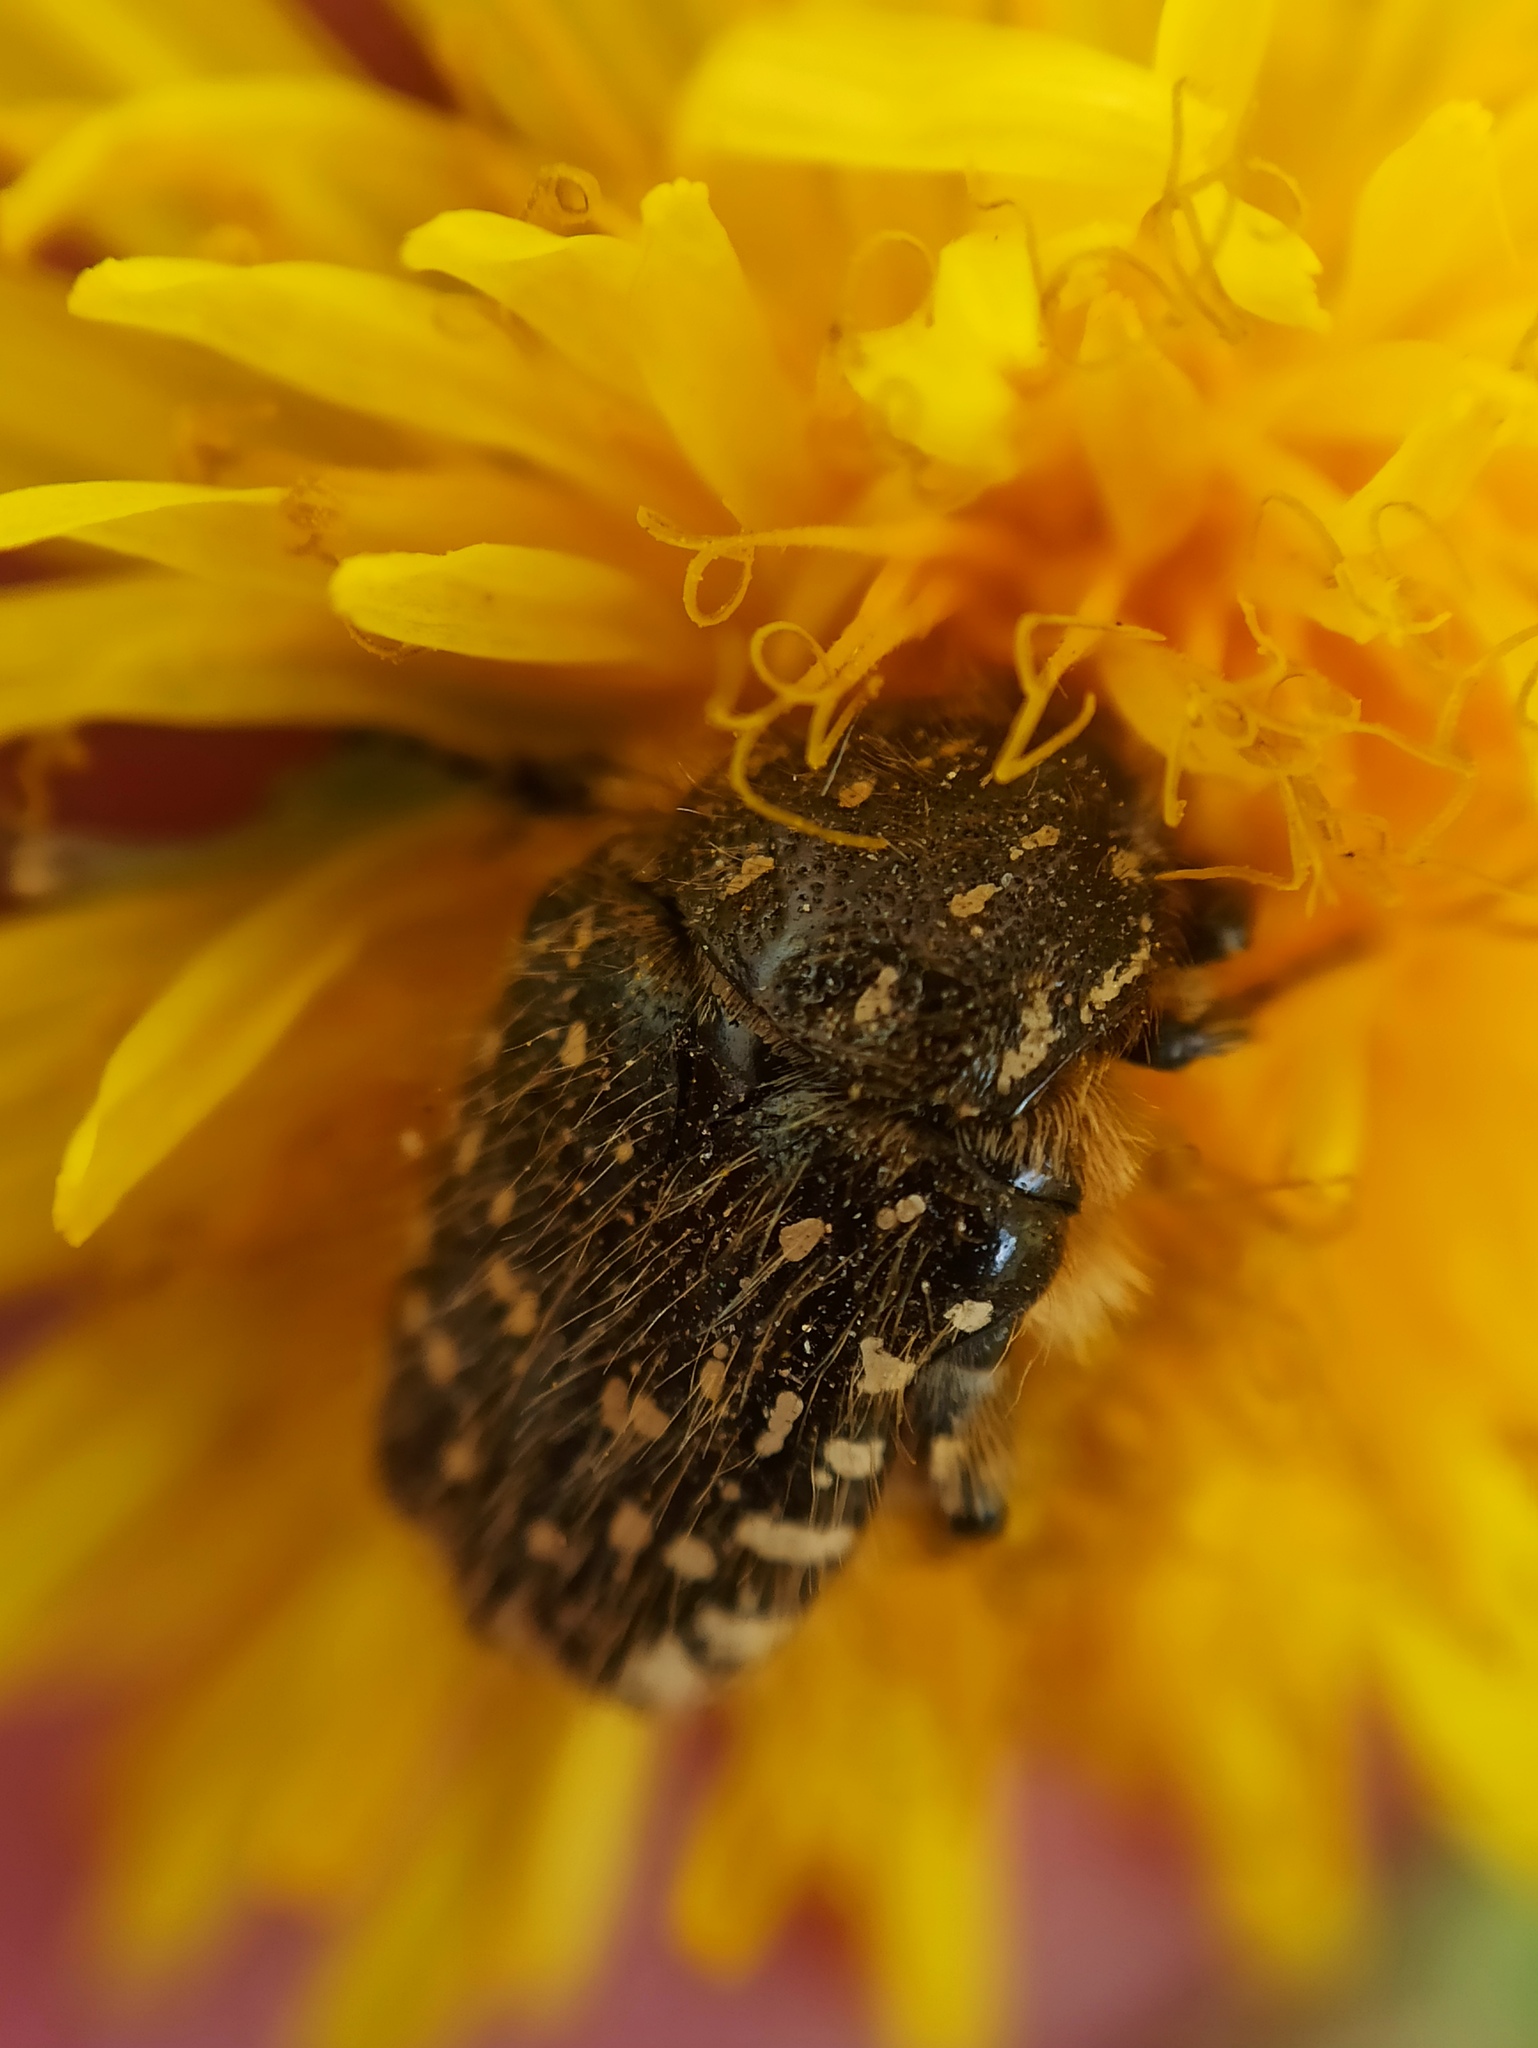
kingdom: Animalia
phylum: Arthropoda
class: Insecta
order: Coleoptera
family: Scarabaeidae
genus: Oxythyrea
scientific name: Oxythyrea funesta
